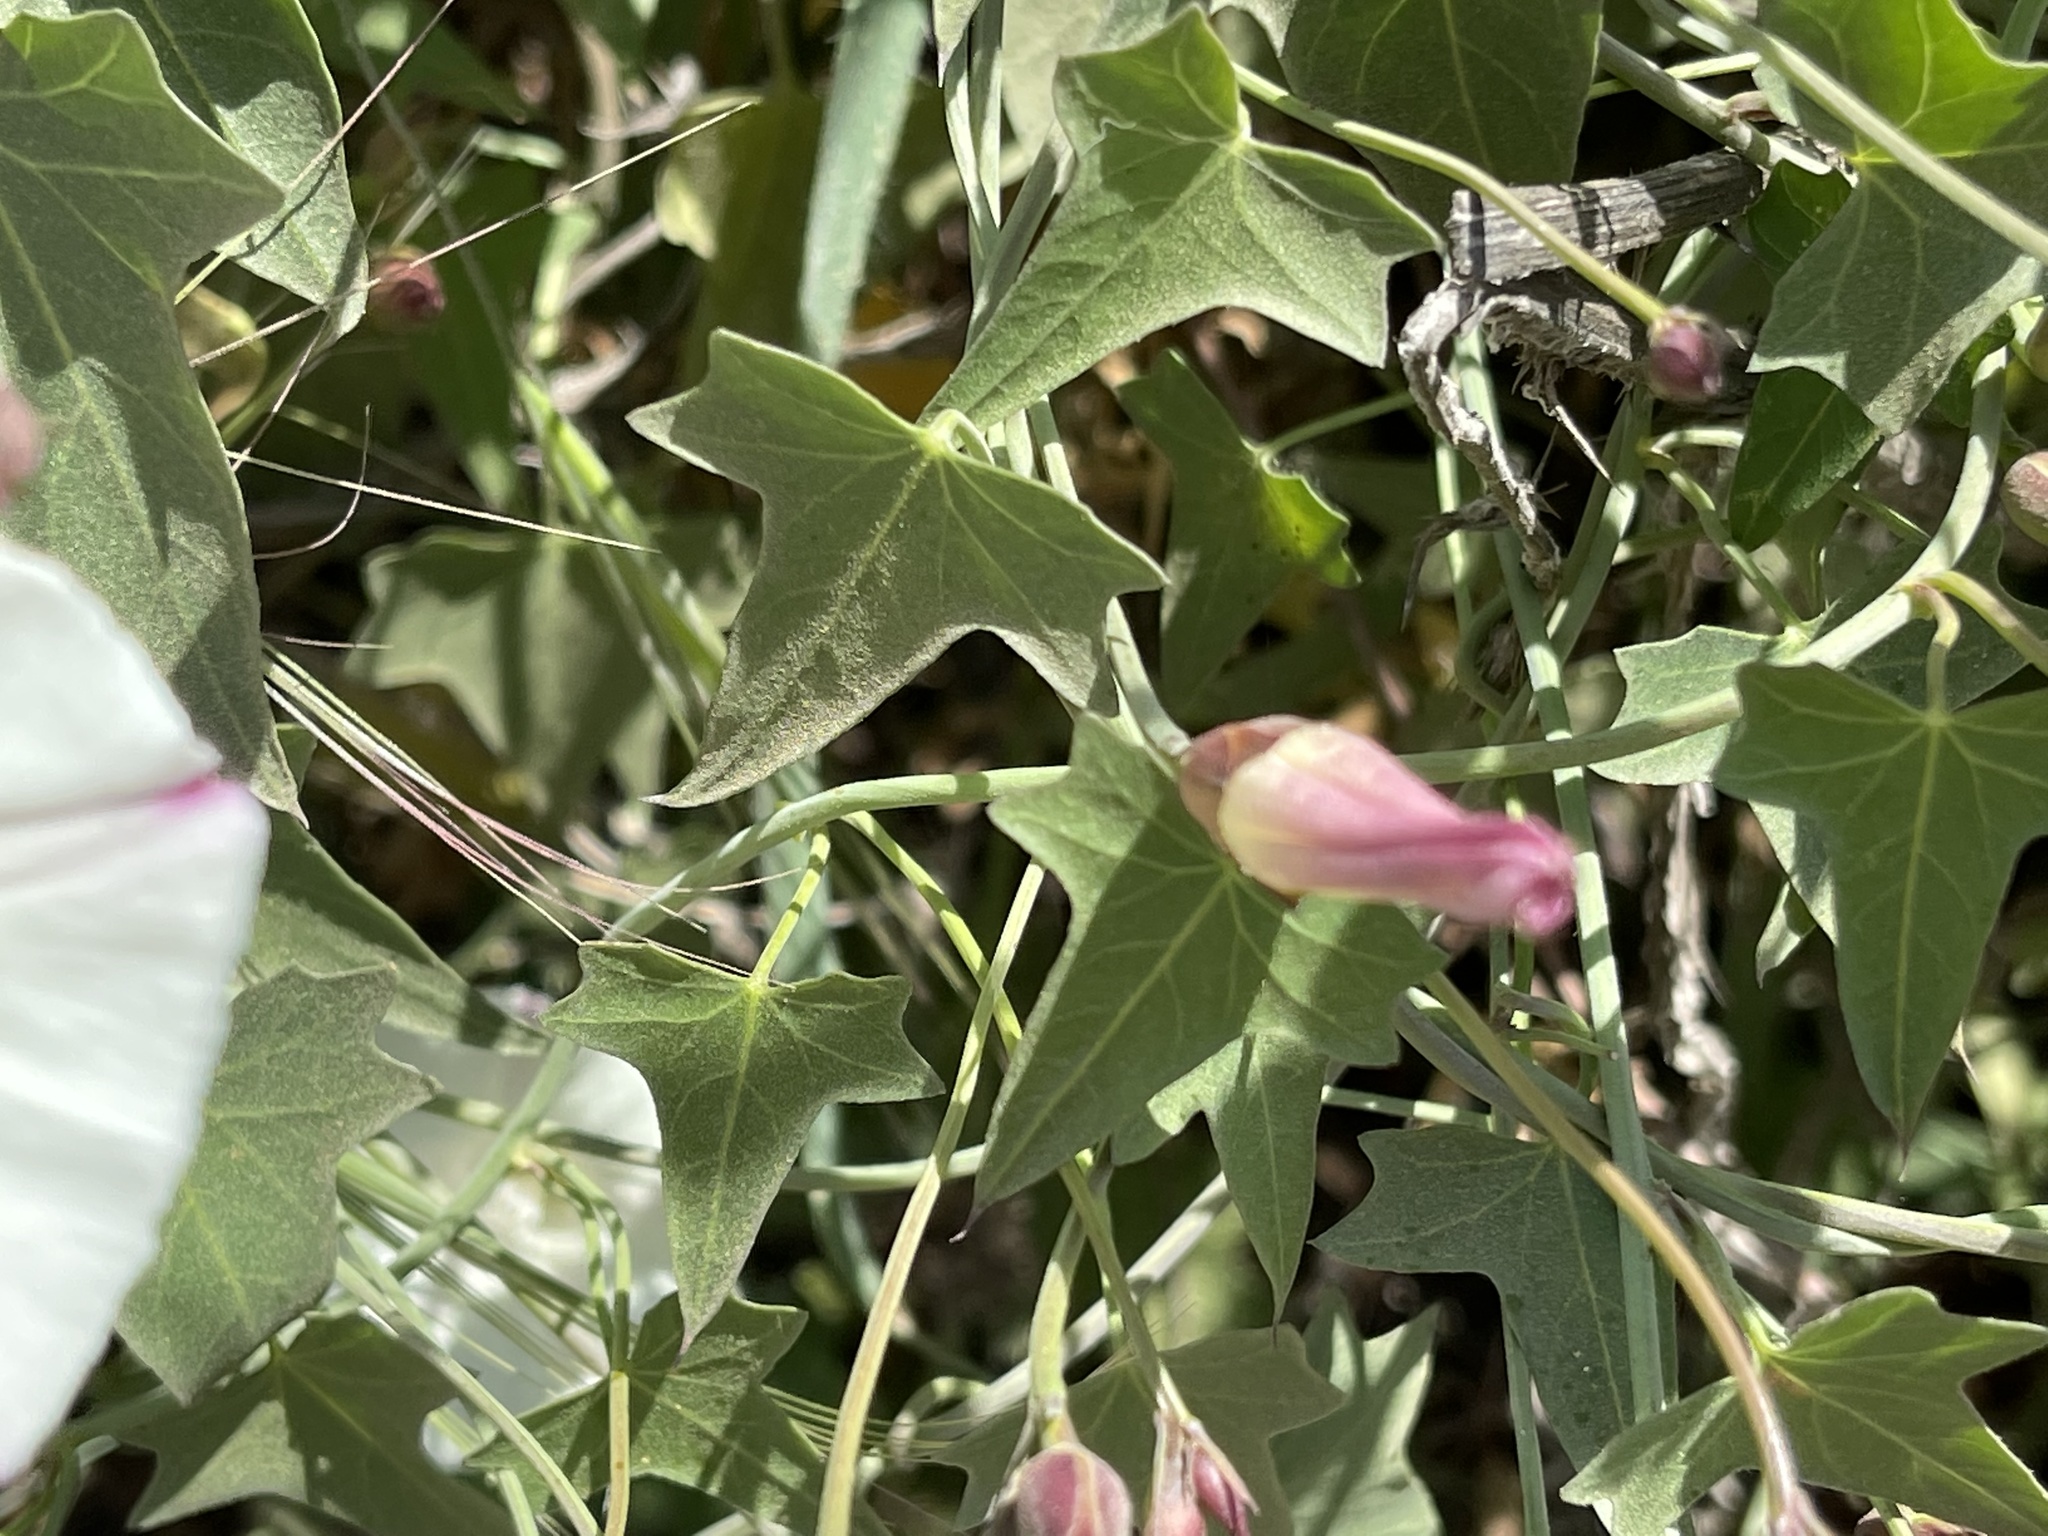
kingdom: Plantae
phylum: Tracheophyta
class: Magnoliopsida
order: Solanales
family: Convolvulaceae
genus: Calystegia
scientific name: Calystegia purpurata
